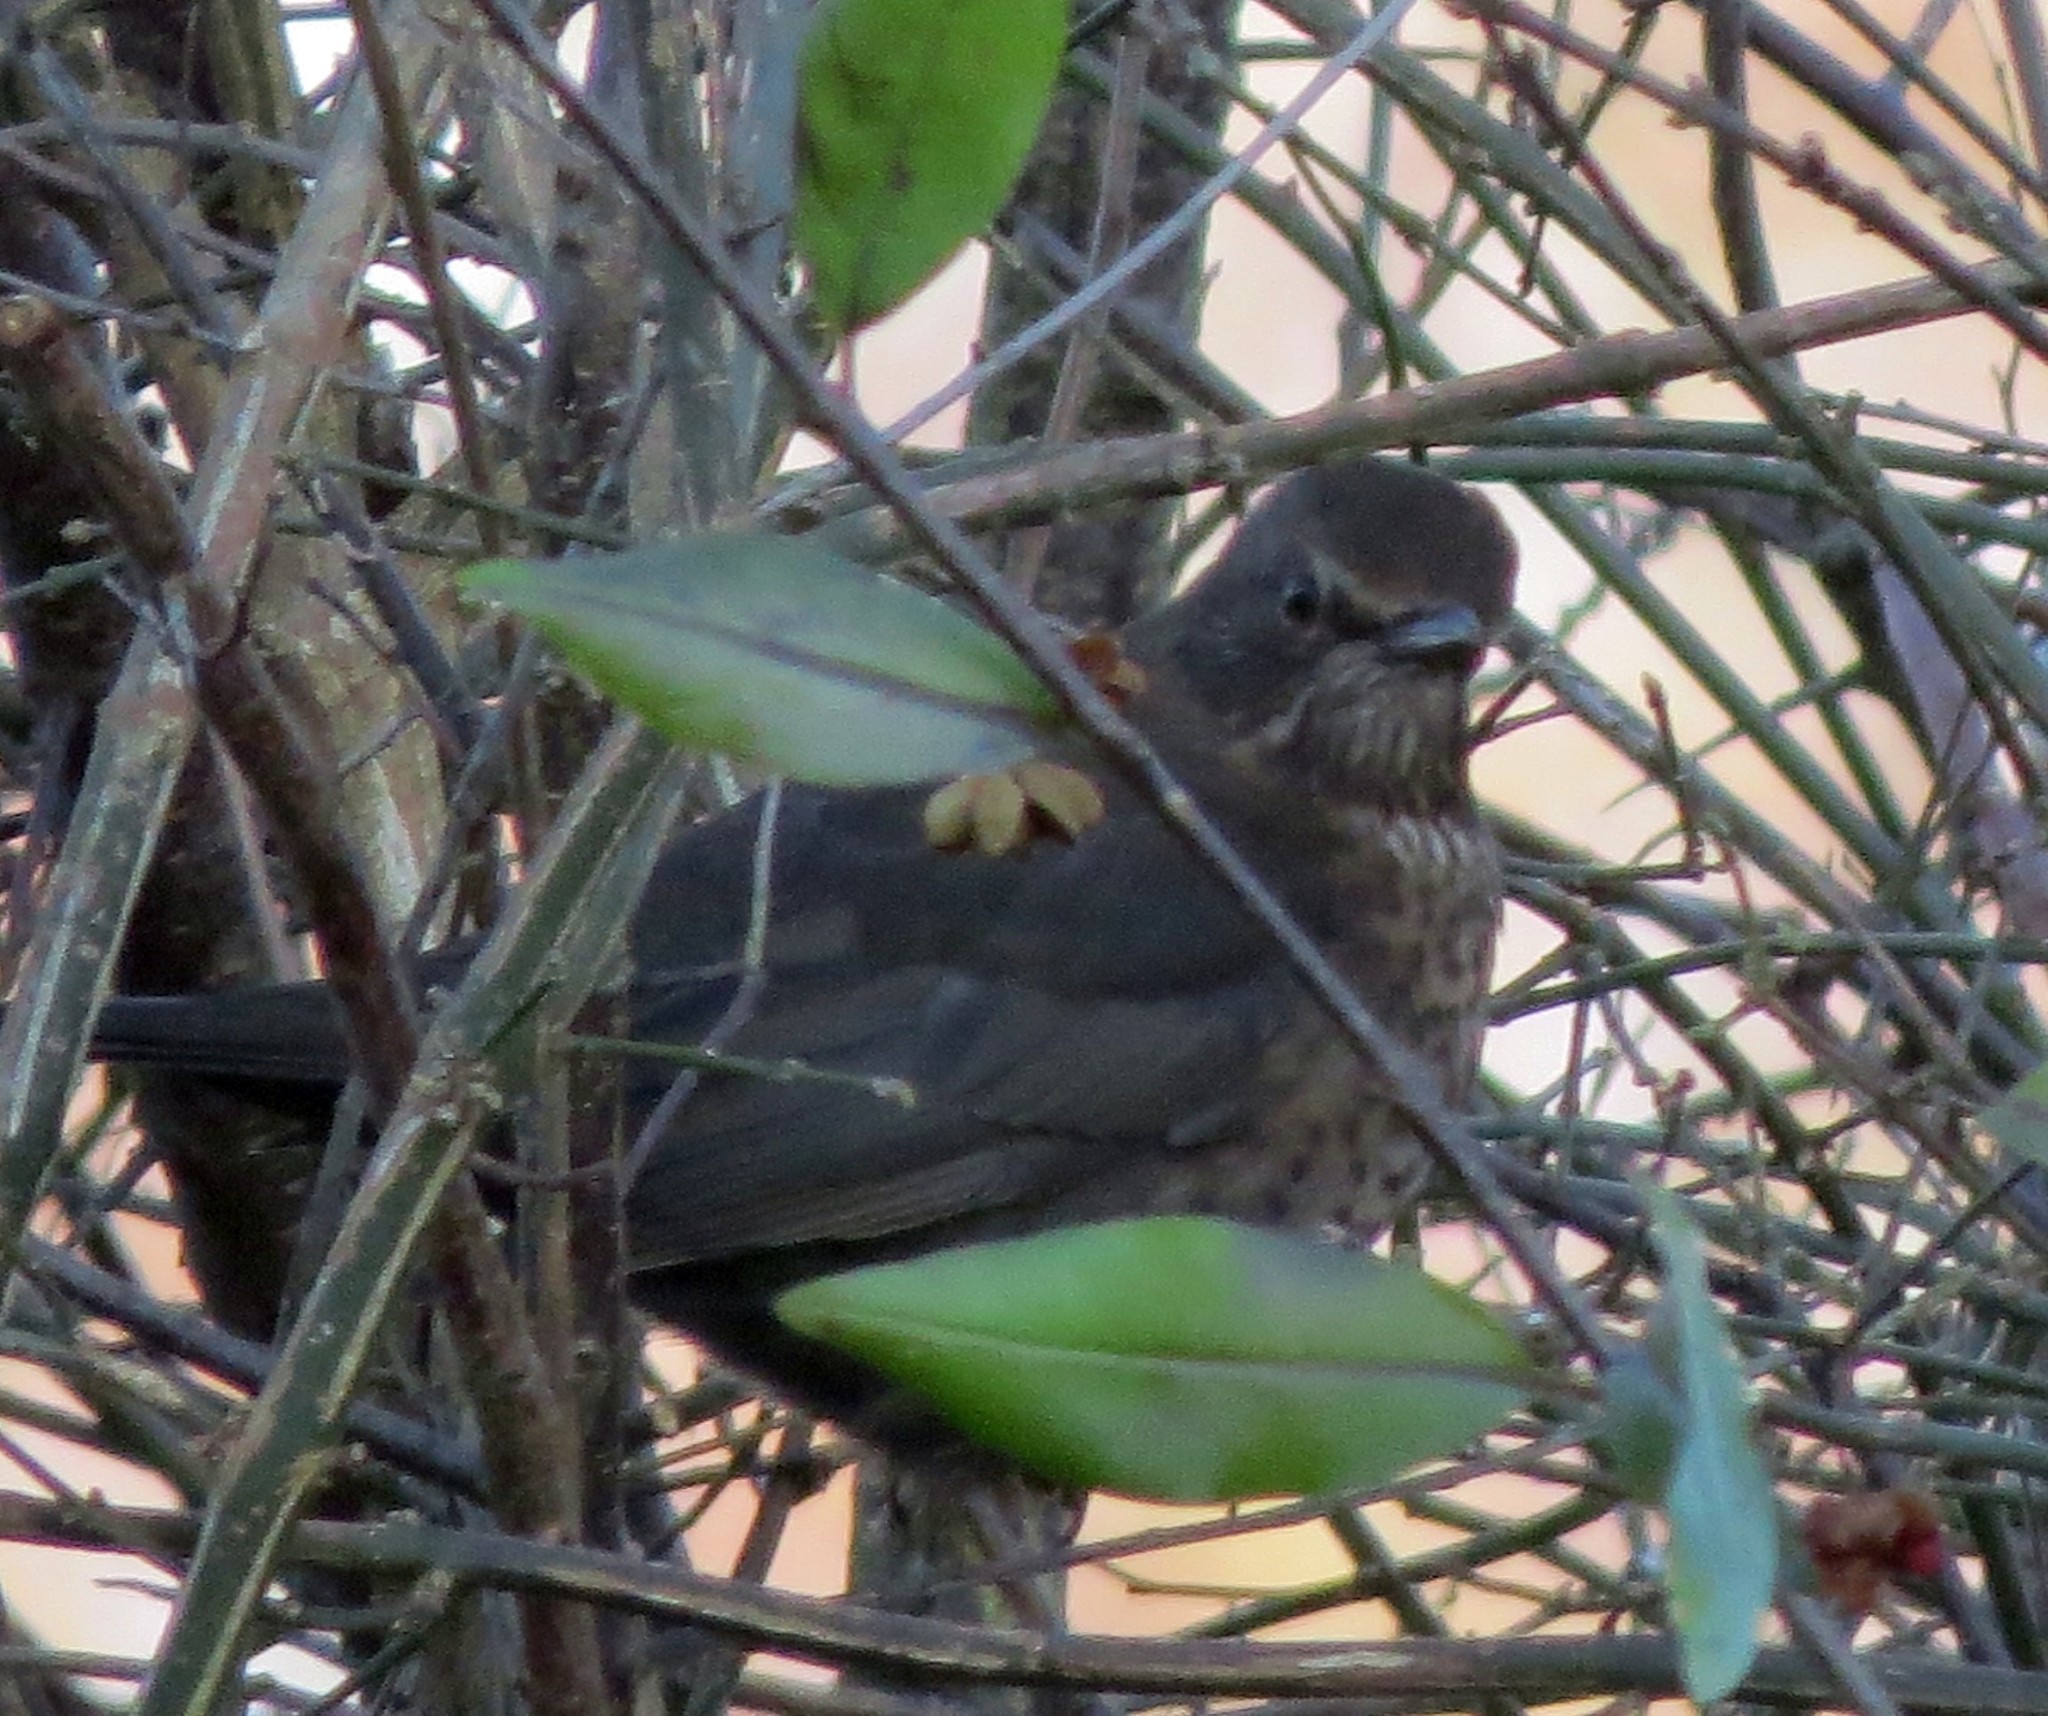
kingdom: Animalia
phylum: Chordata
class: Aves
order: Passeriformes
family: Turdidae
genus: Turdus
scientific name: Turdus merula
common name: Common blackbird
